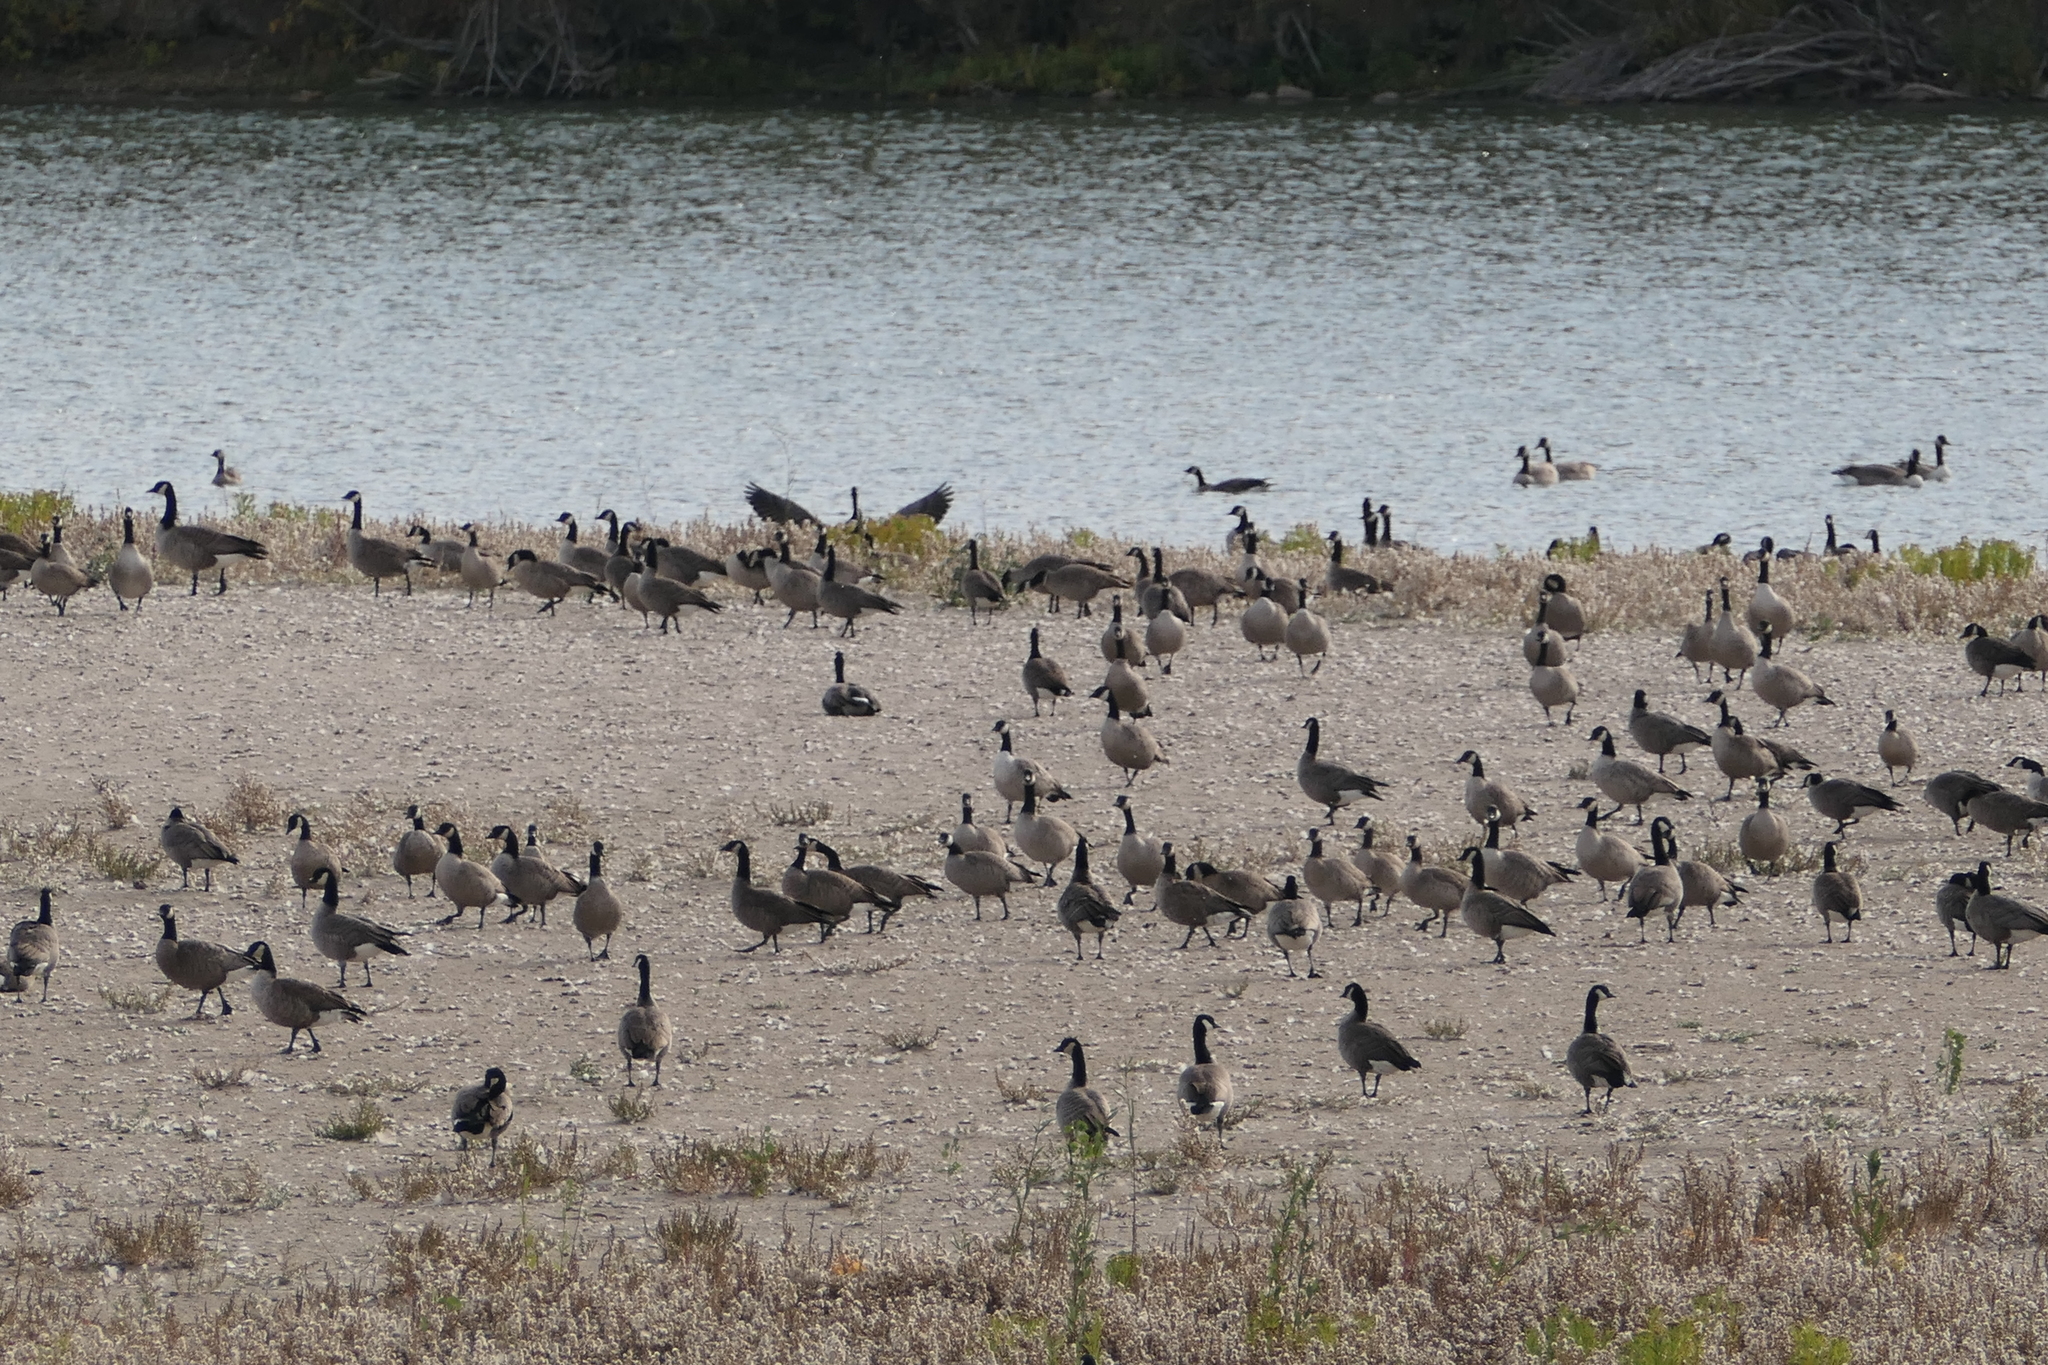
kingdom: Animalia
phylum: Chordata
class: Aves
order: Anseriformes
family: Anatidae
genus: Branta
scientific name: Branta canadensis
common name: Canada goose
